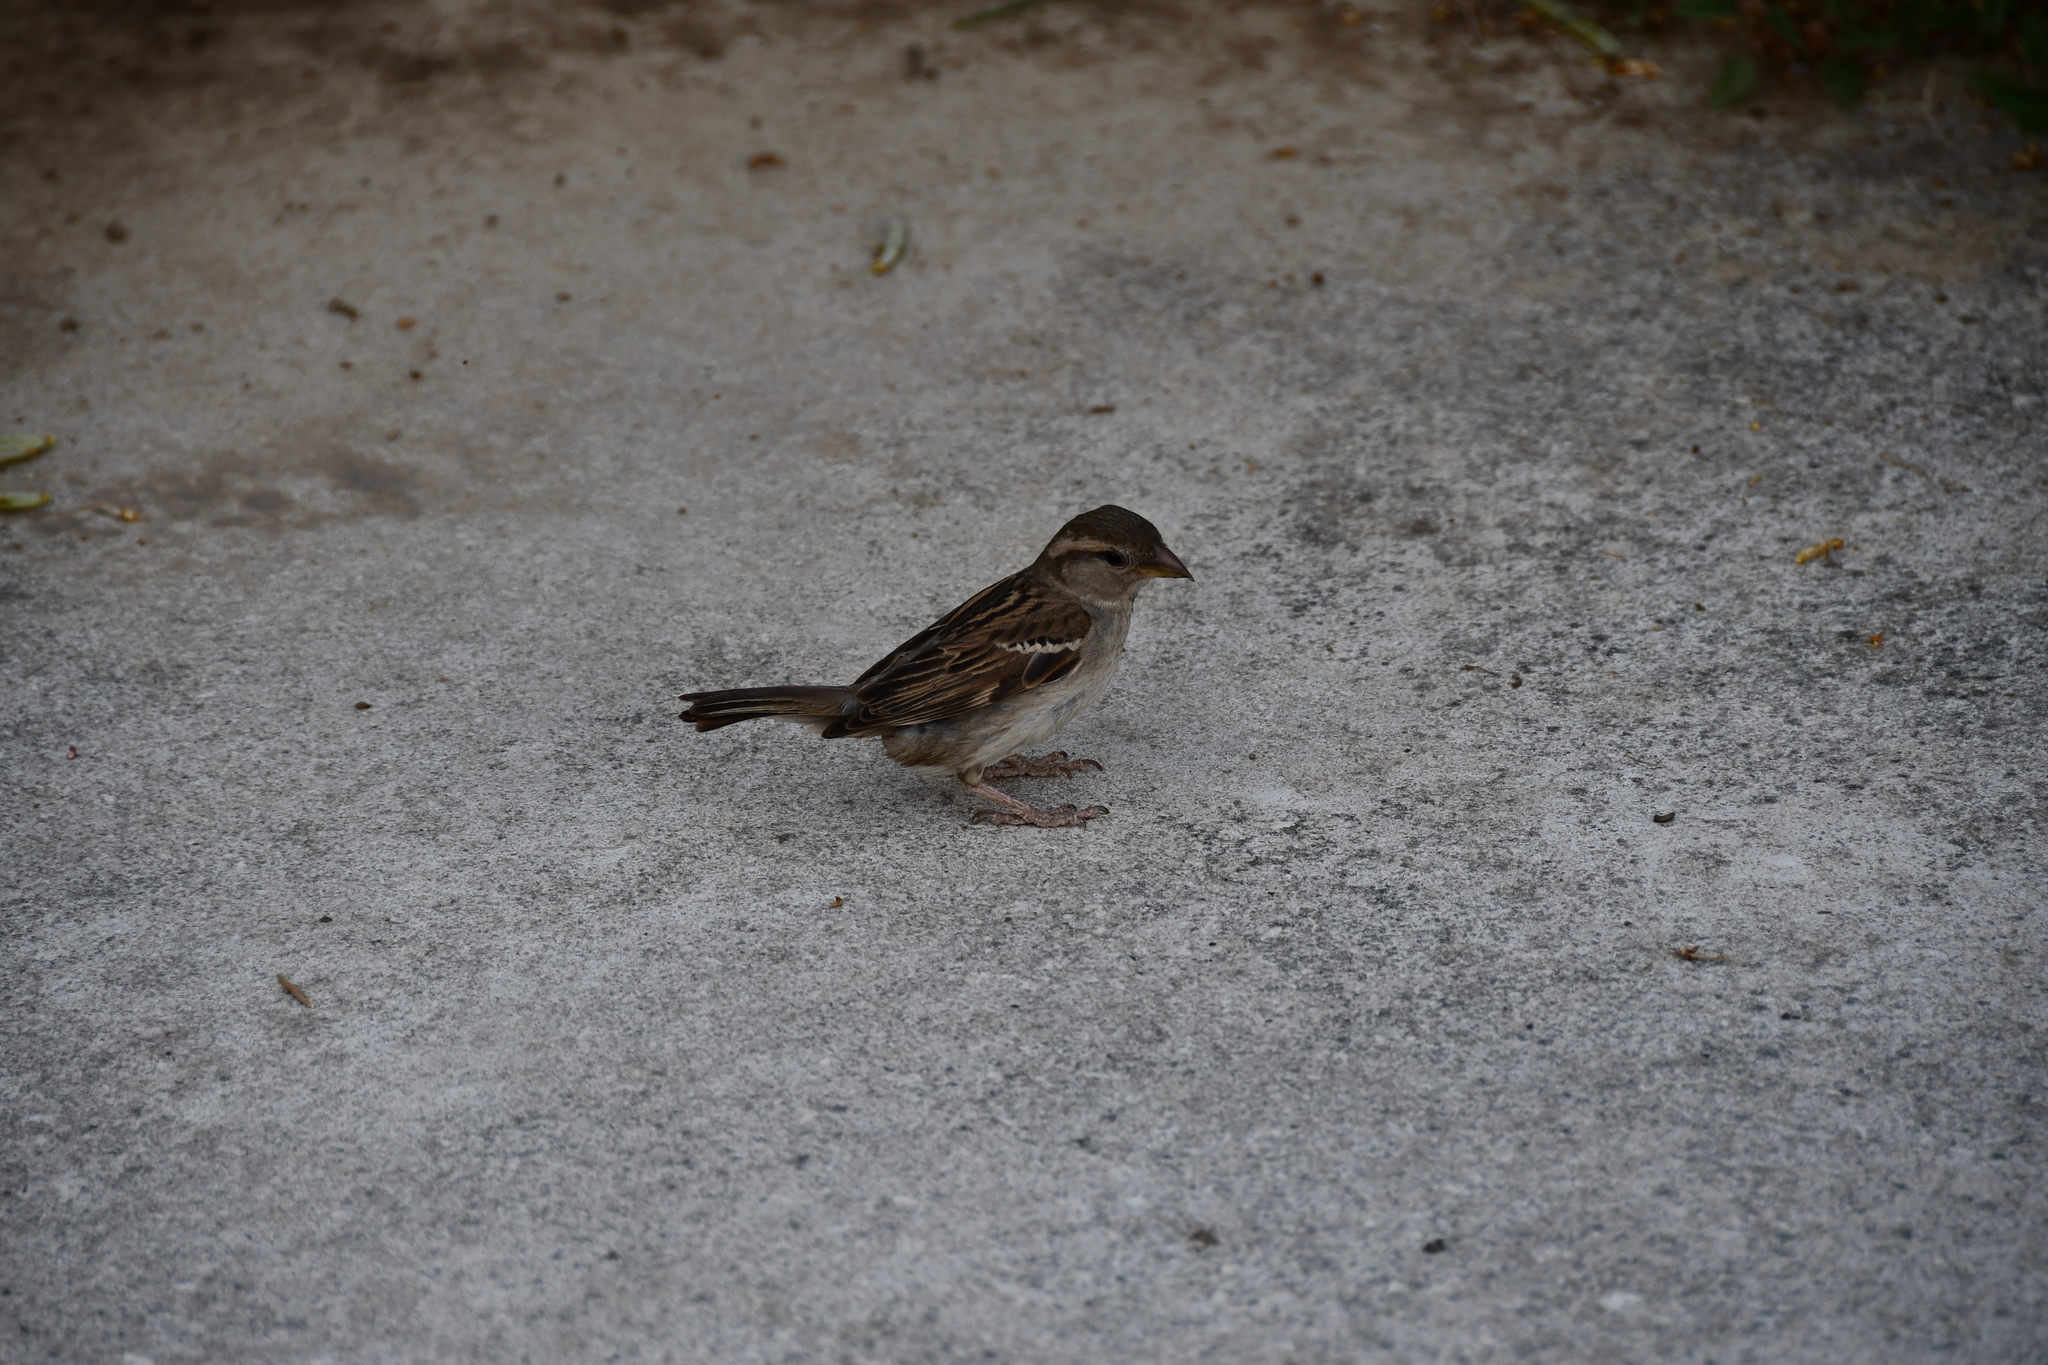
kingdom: Animalia
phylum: Chordata
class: Aves
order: Passeriformes
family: Passeridae
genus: Passer
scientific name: Passer domesticus
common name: House sparrow
